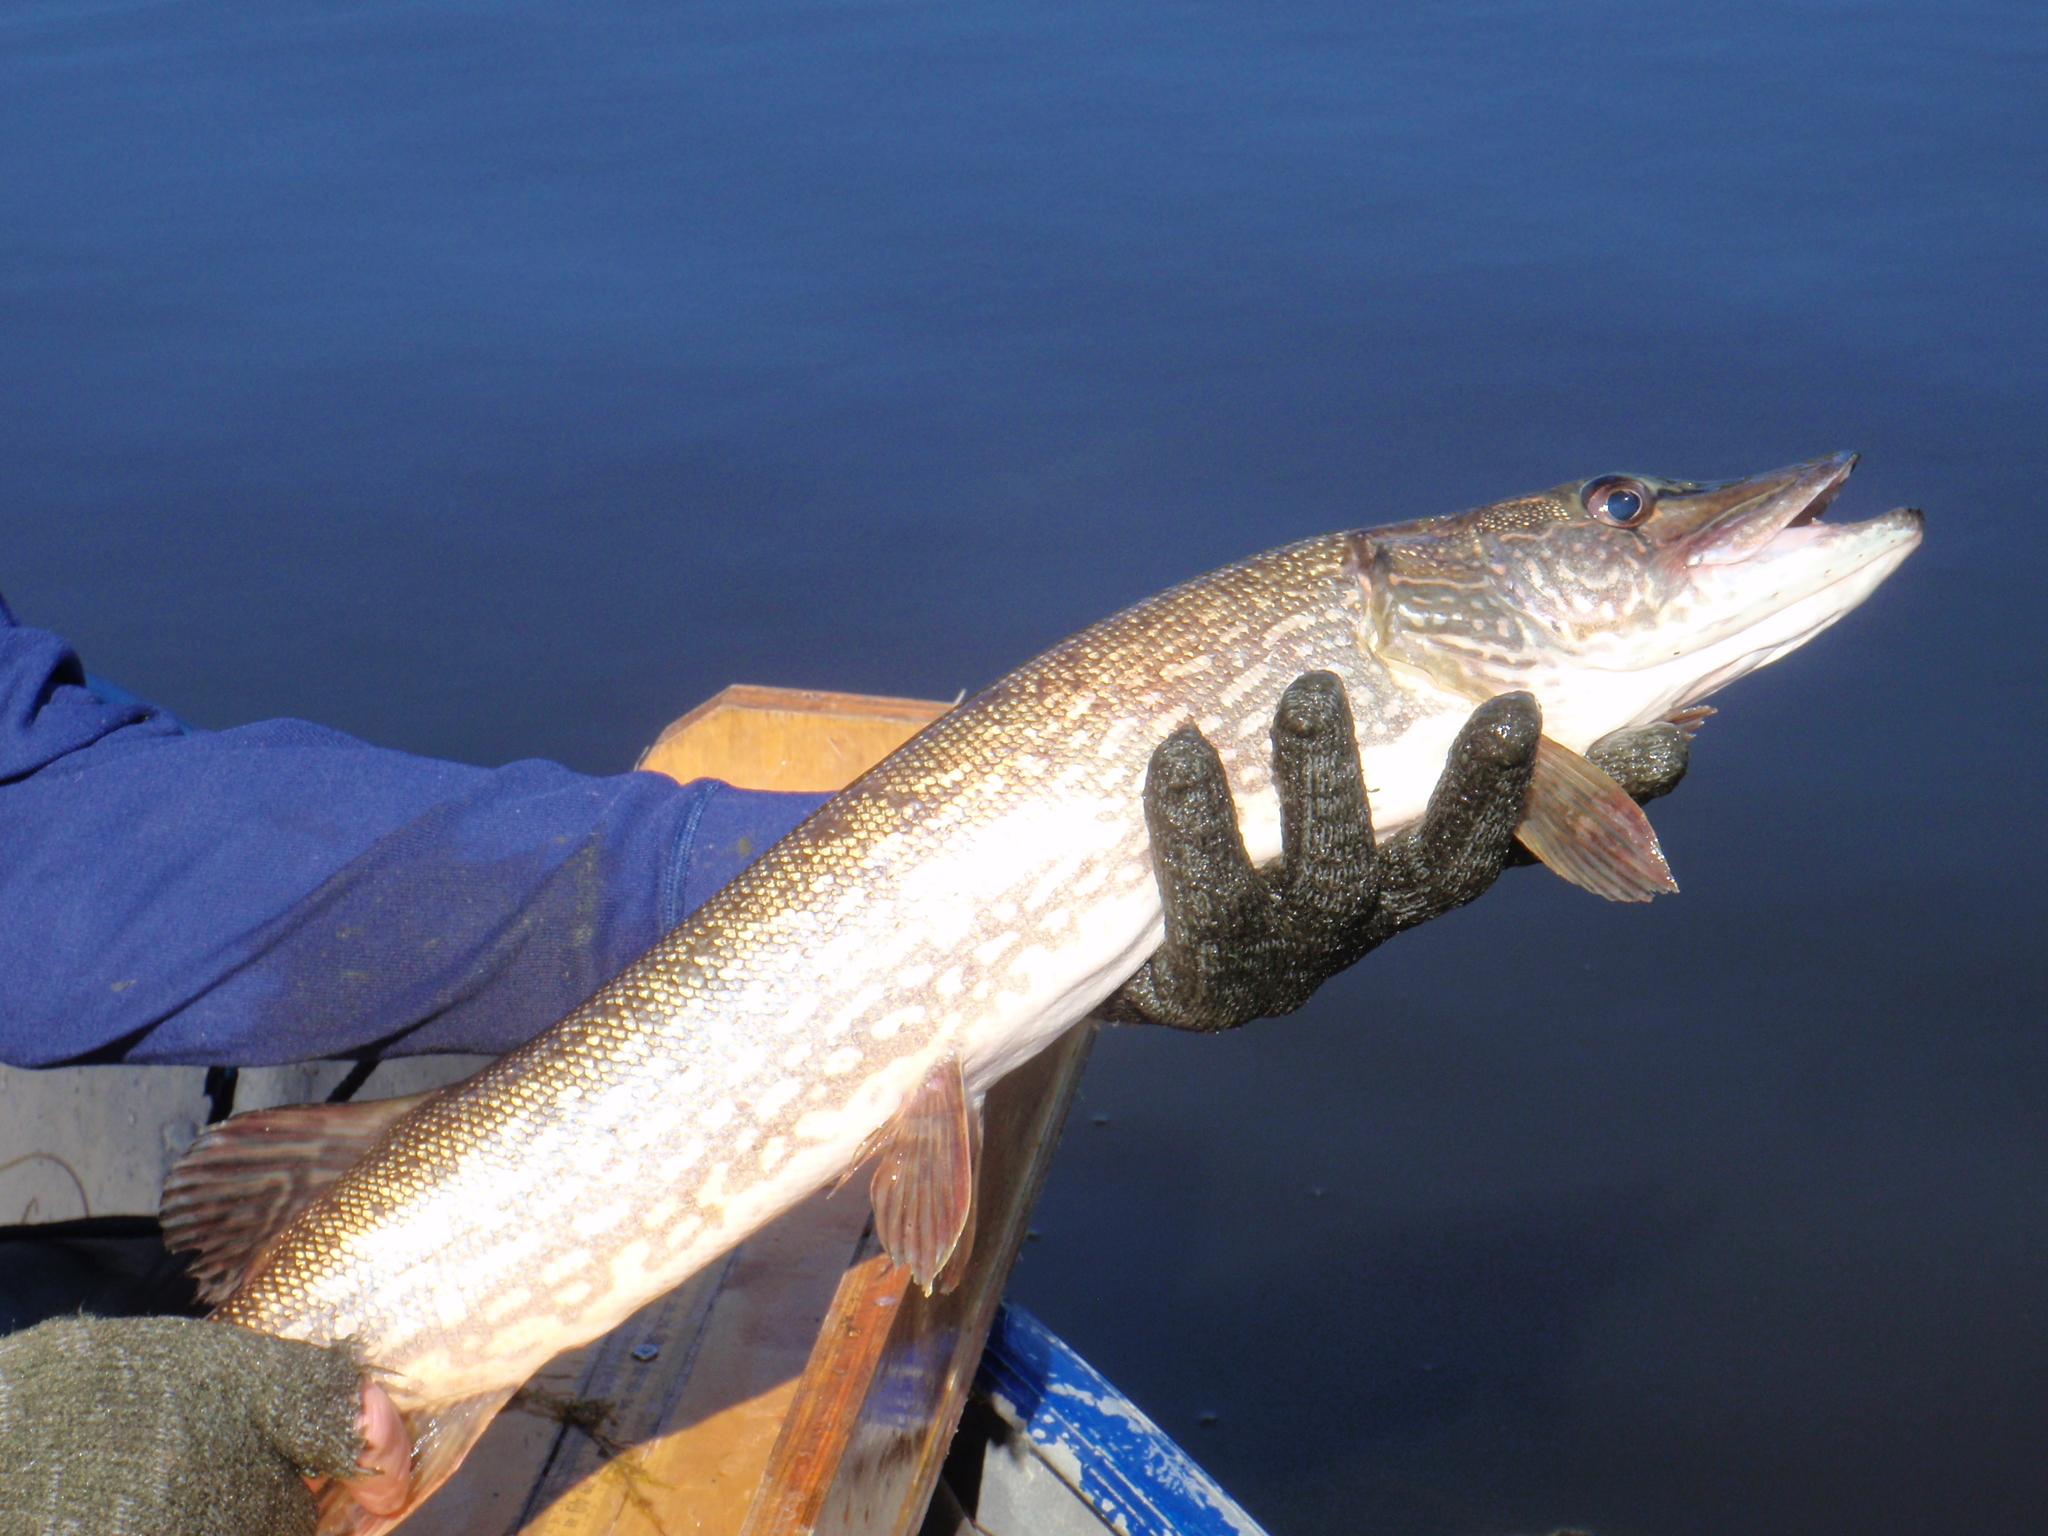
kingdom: Animalia
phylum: Chordata
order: Esociformes
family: Esocidae
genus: Esox
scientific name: Esox lucius
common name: Northern pike
